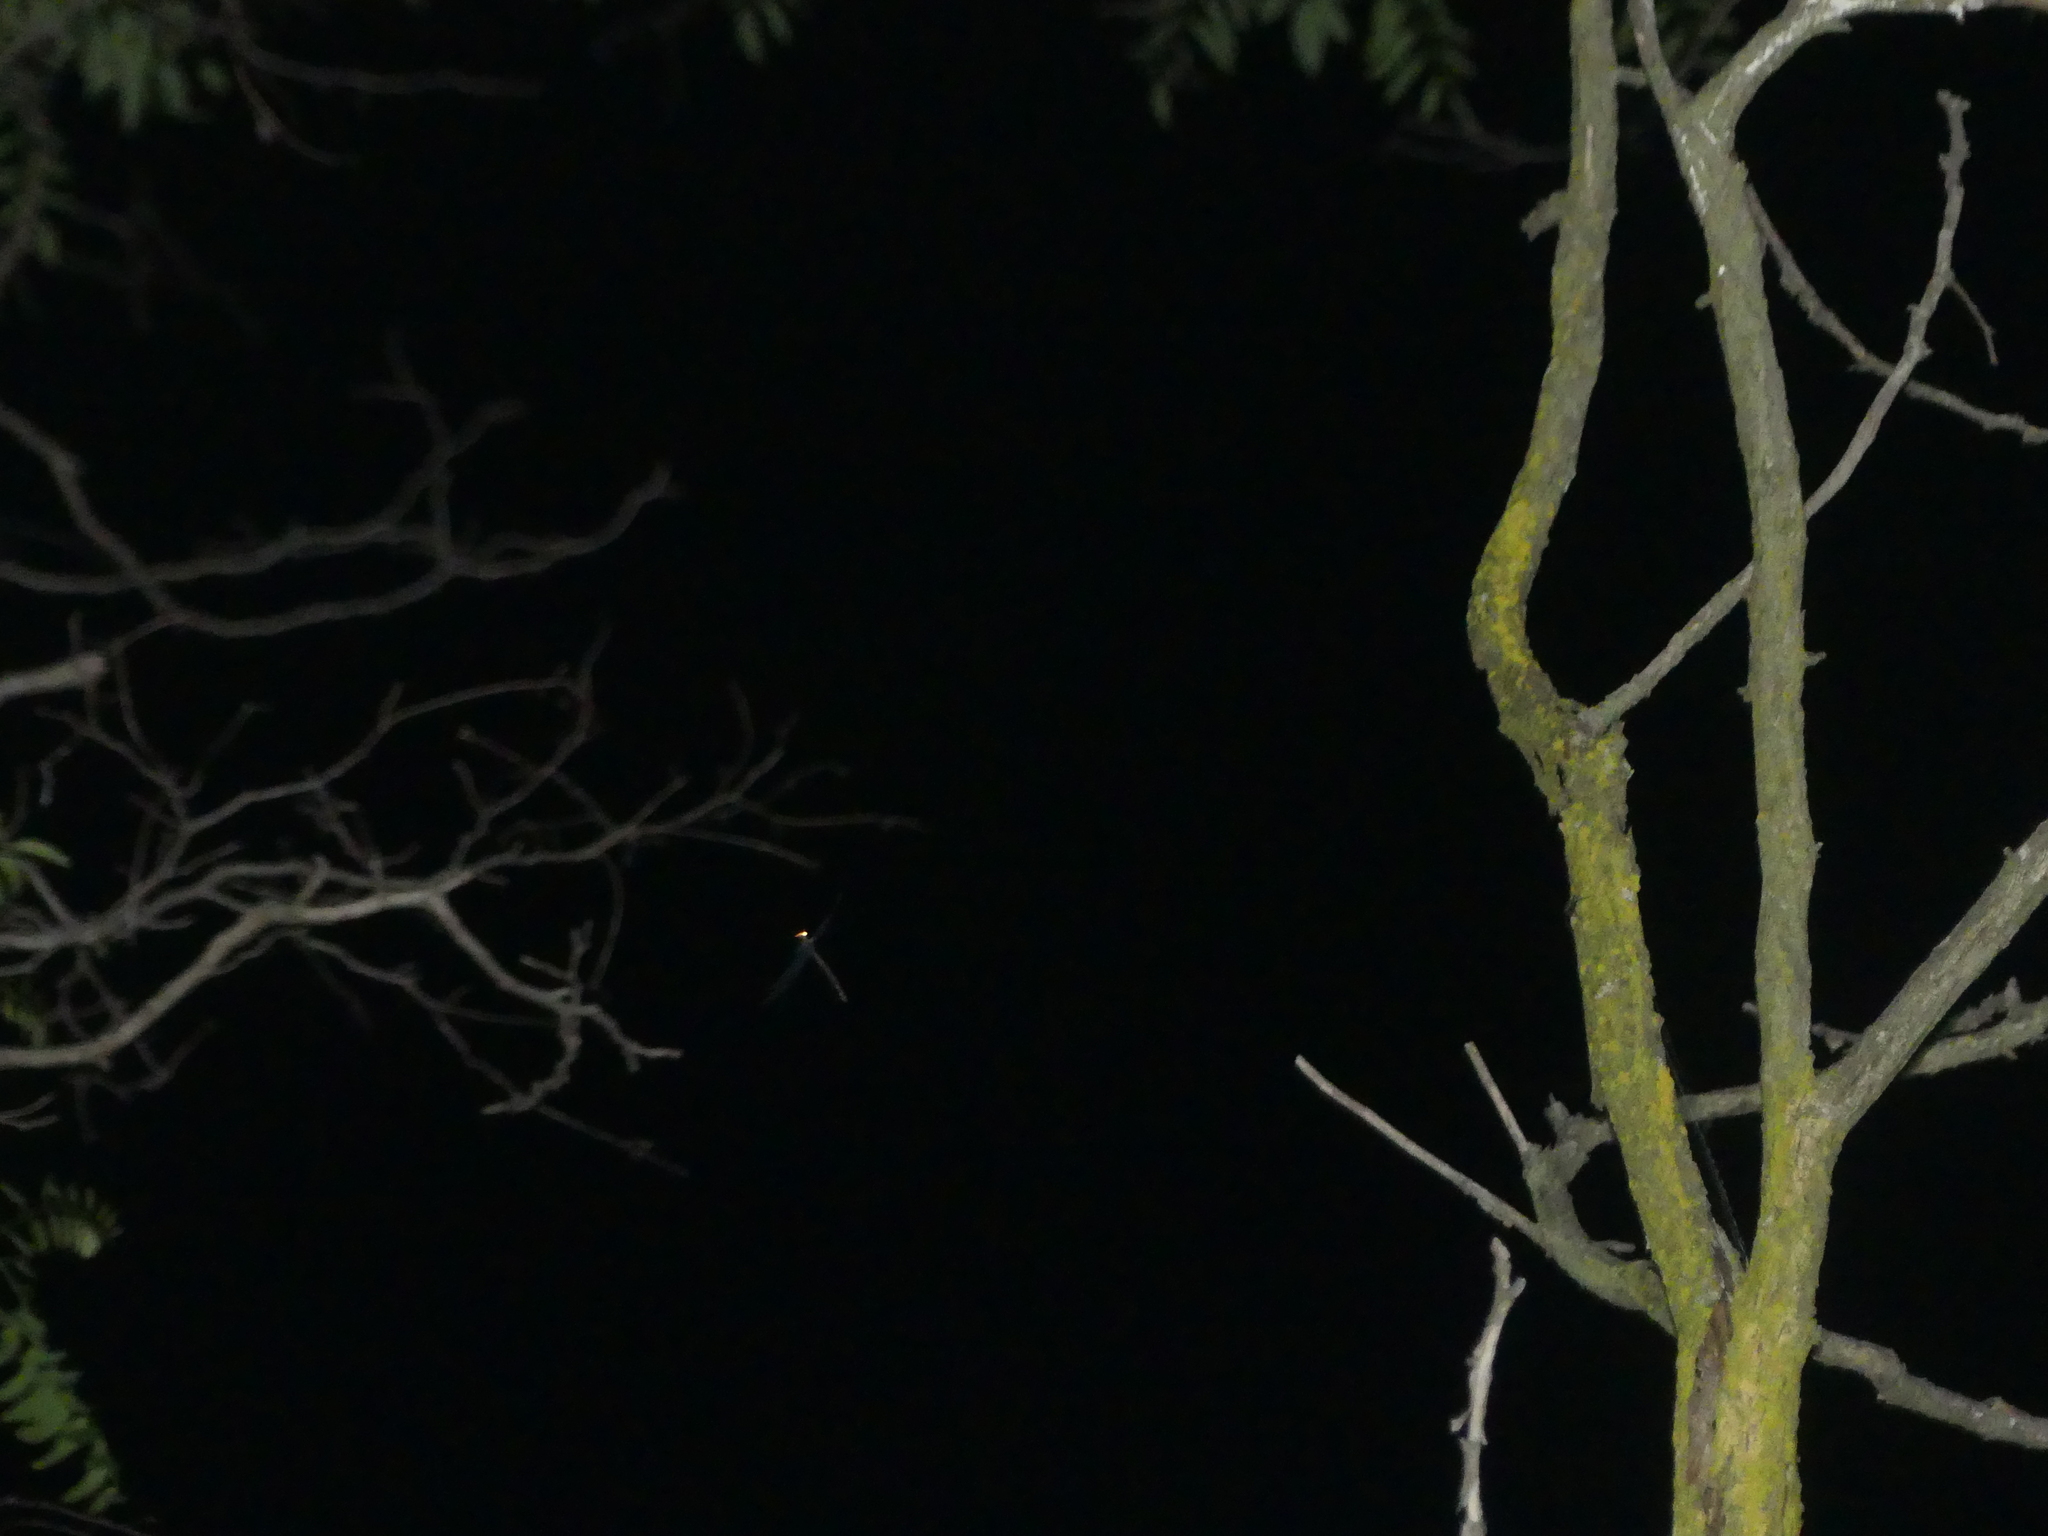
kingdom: Animalia
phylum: Arthropoda
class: Insecta
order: Neuroptera
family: Myrmeleontidae
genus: Myrmeleon
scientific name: Myrmeleon formicarius
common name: Ant-lion
